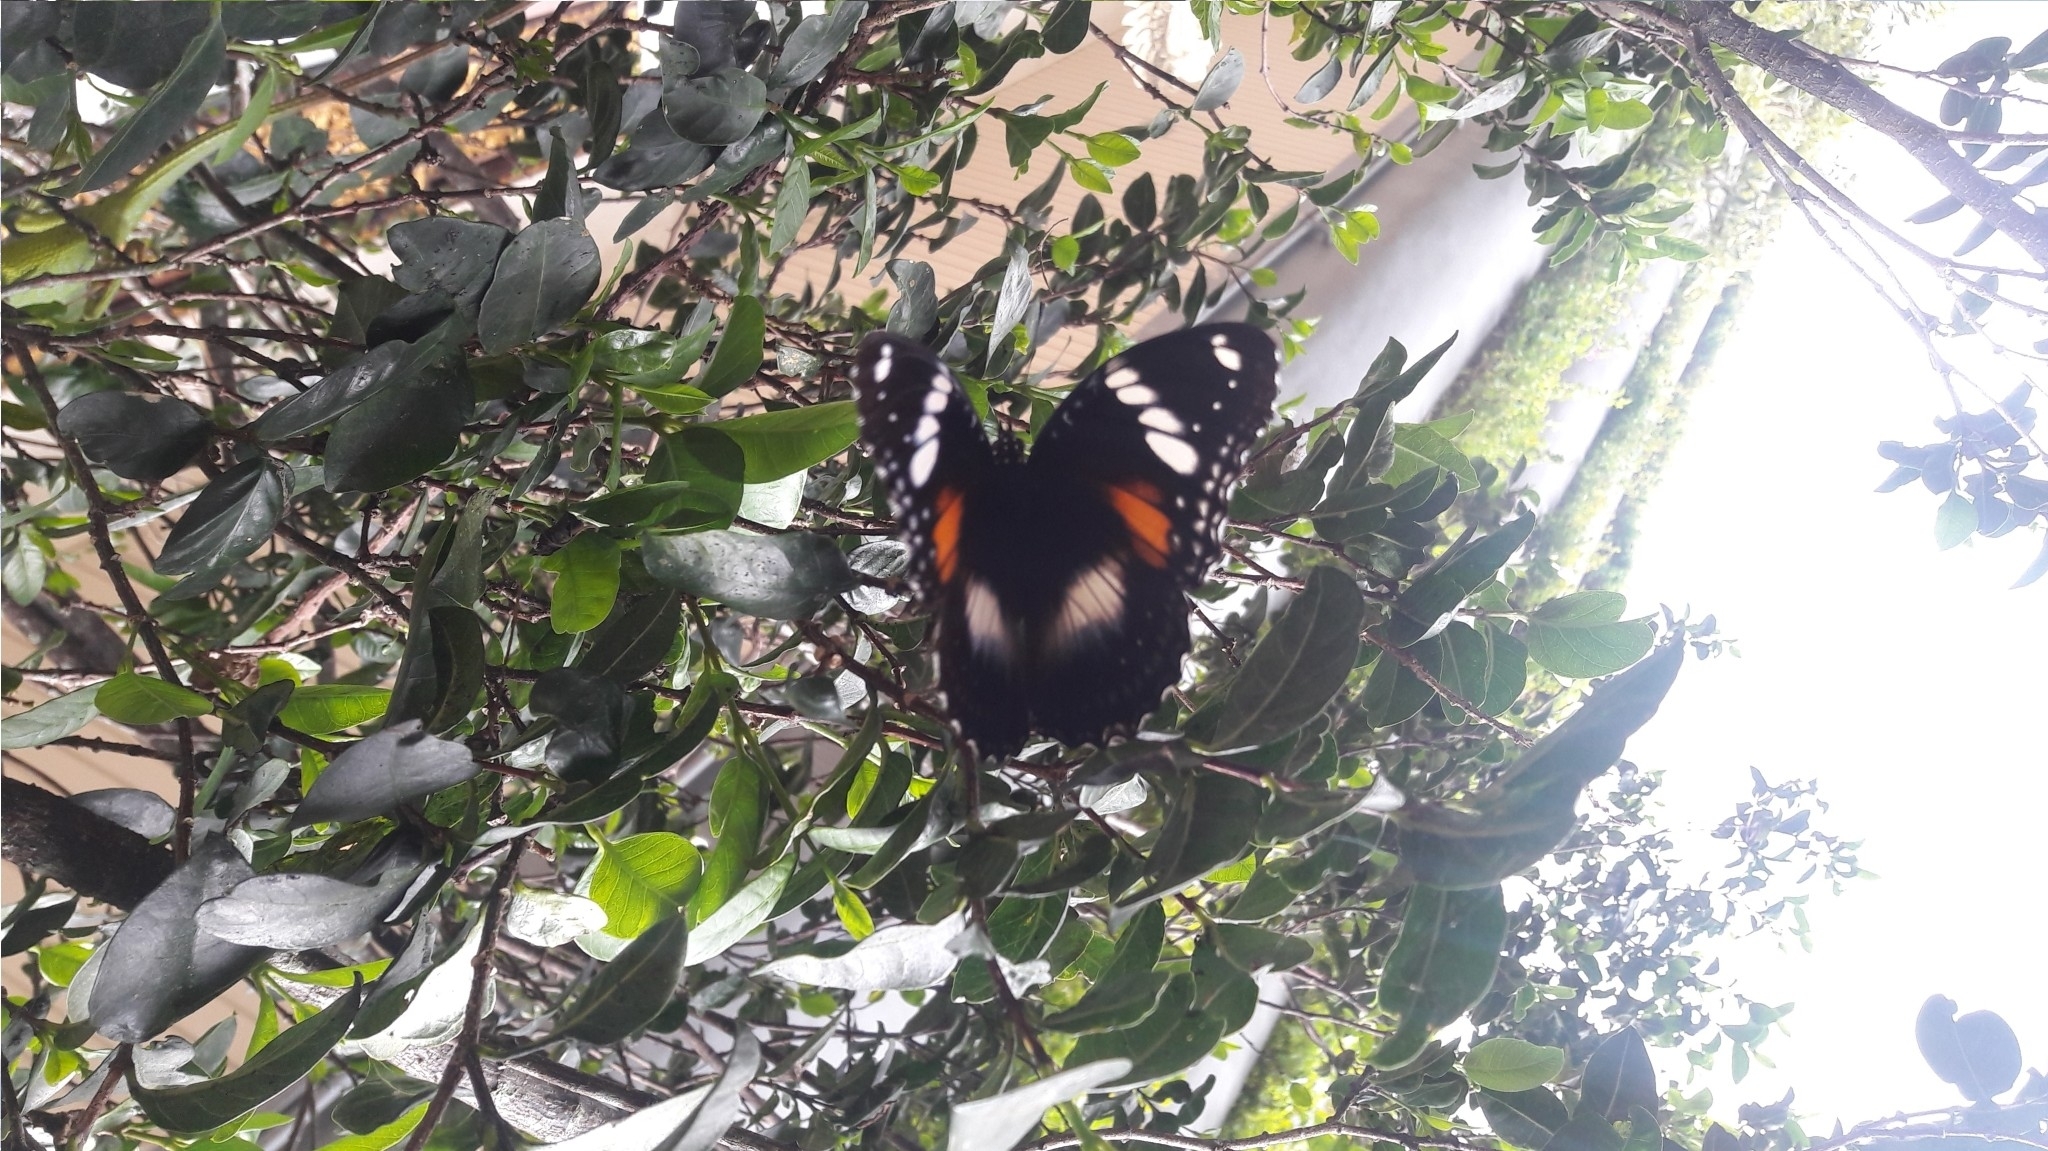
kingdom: Animalia
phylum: Arthropoda
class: Insecta
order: Lepidoptera
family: Nymphalidae
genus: Hypolimnas
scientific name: Hypolimnas bolina
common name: Great eggfly
